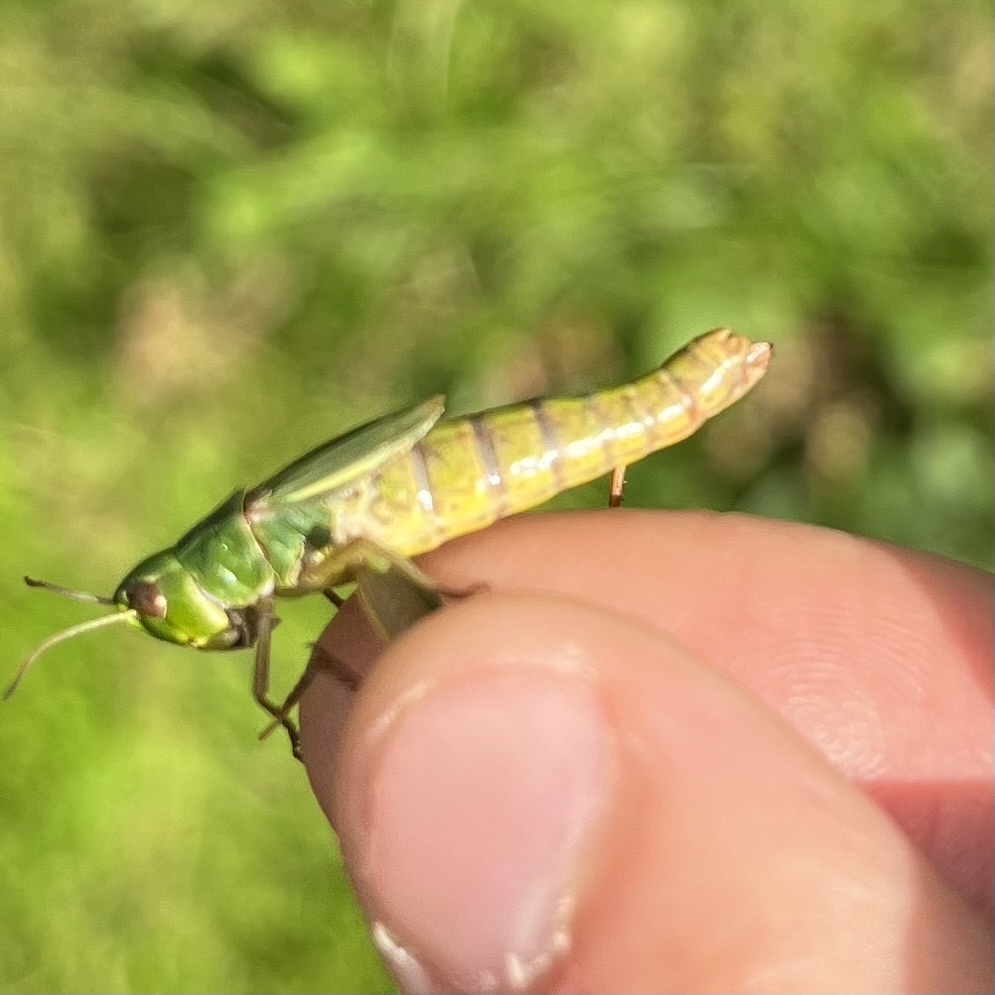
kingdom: Animalia
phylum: Arthropoda
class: Insecta
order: Orthoptera
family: Acrididae
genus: Pseudochorthippus
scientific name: Pseudochorthippus parallelus
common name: Meadow grasshopper
